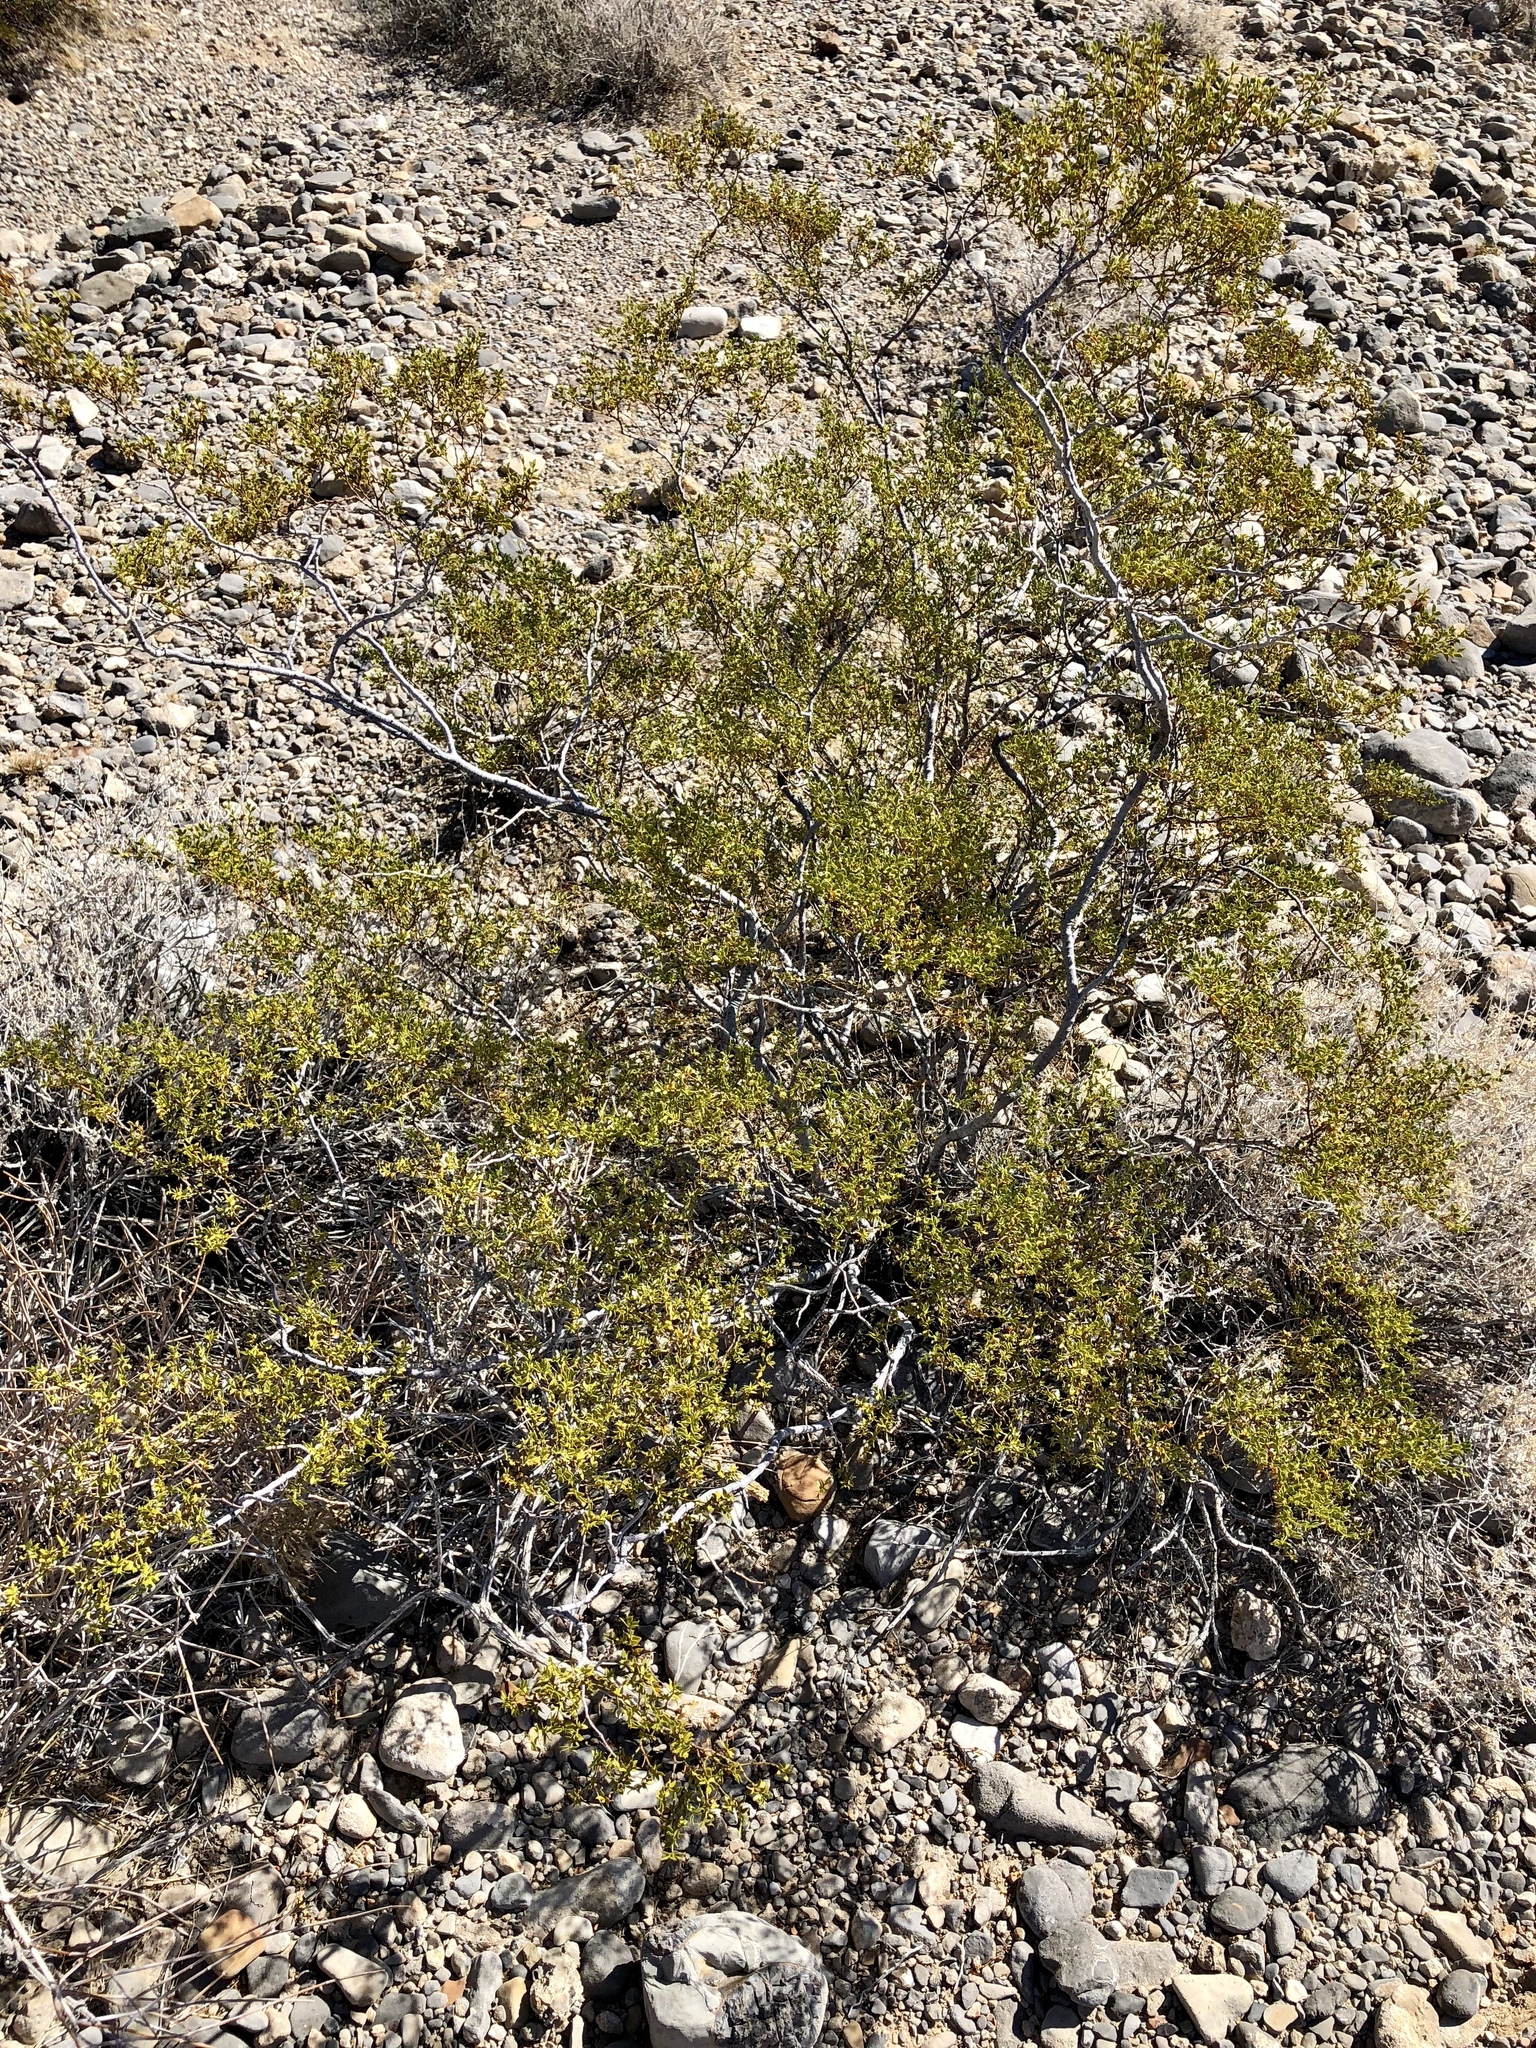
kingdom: Plantae
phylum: Tracheophyta
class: Magnoliopsida
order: Zygophyllales
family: Zygophyllaceae
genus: Larrea
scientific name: Larrea tridentata
